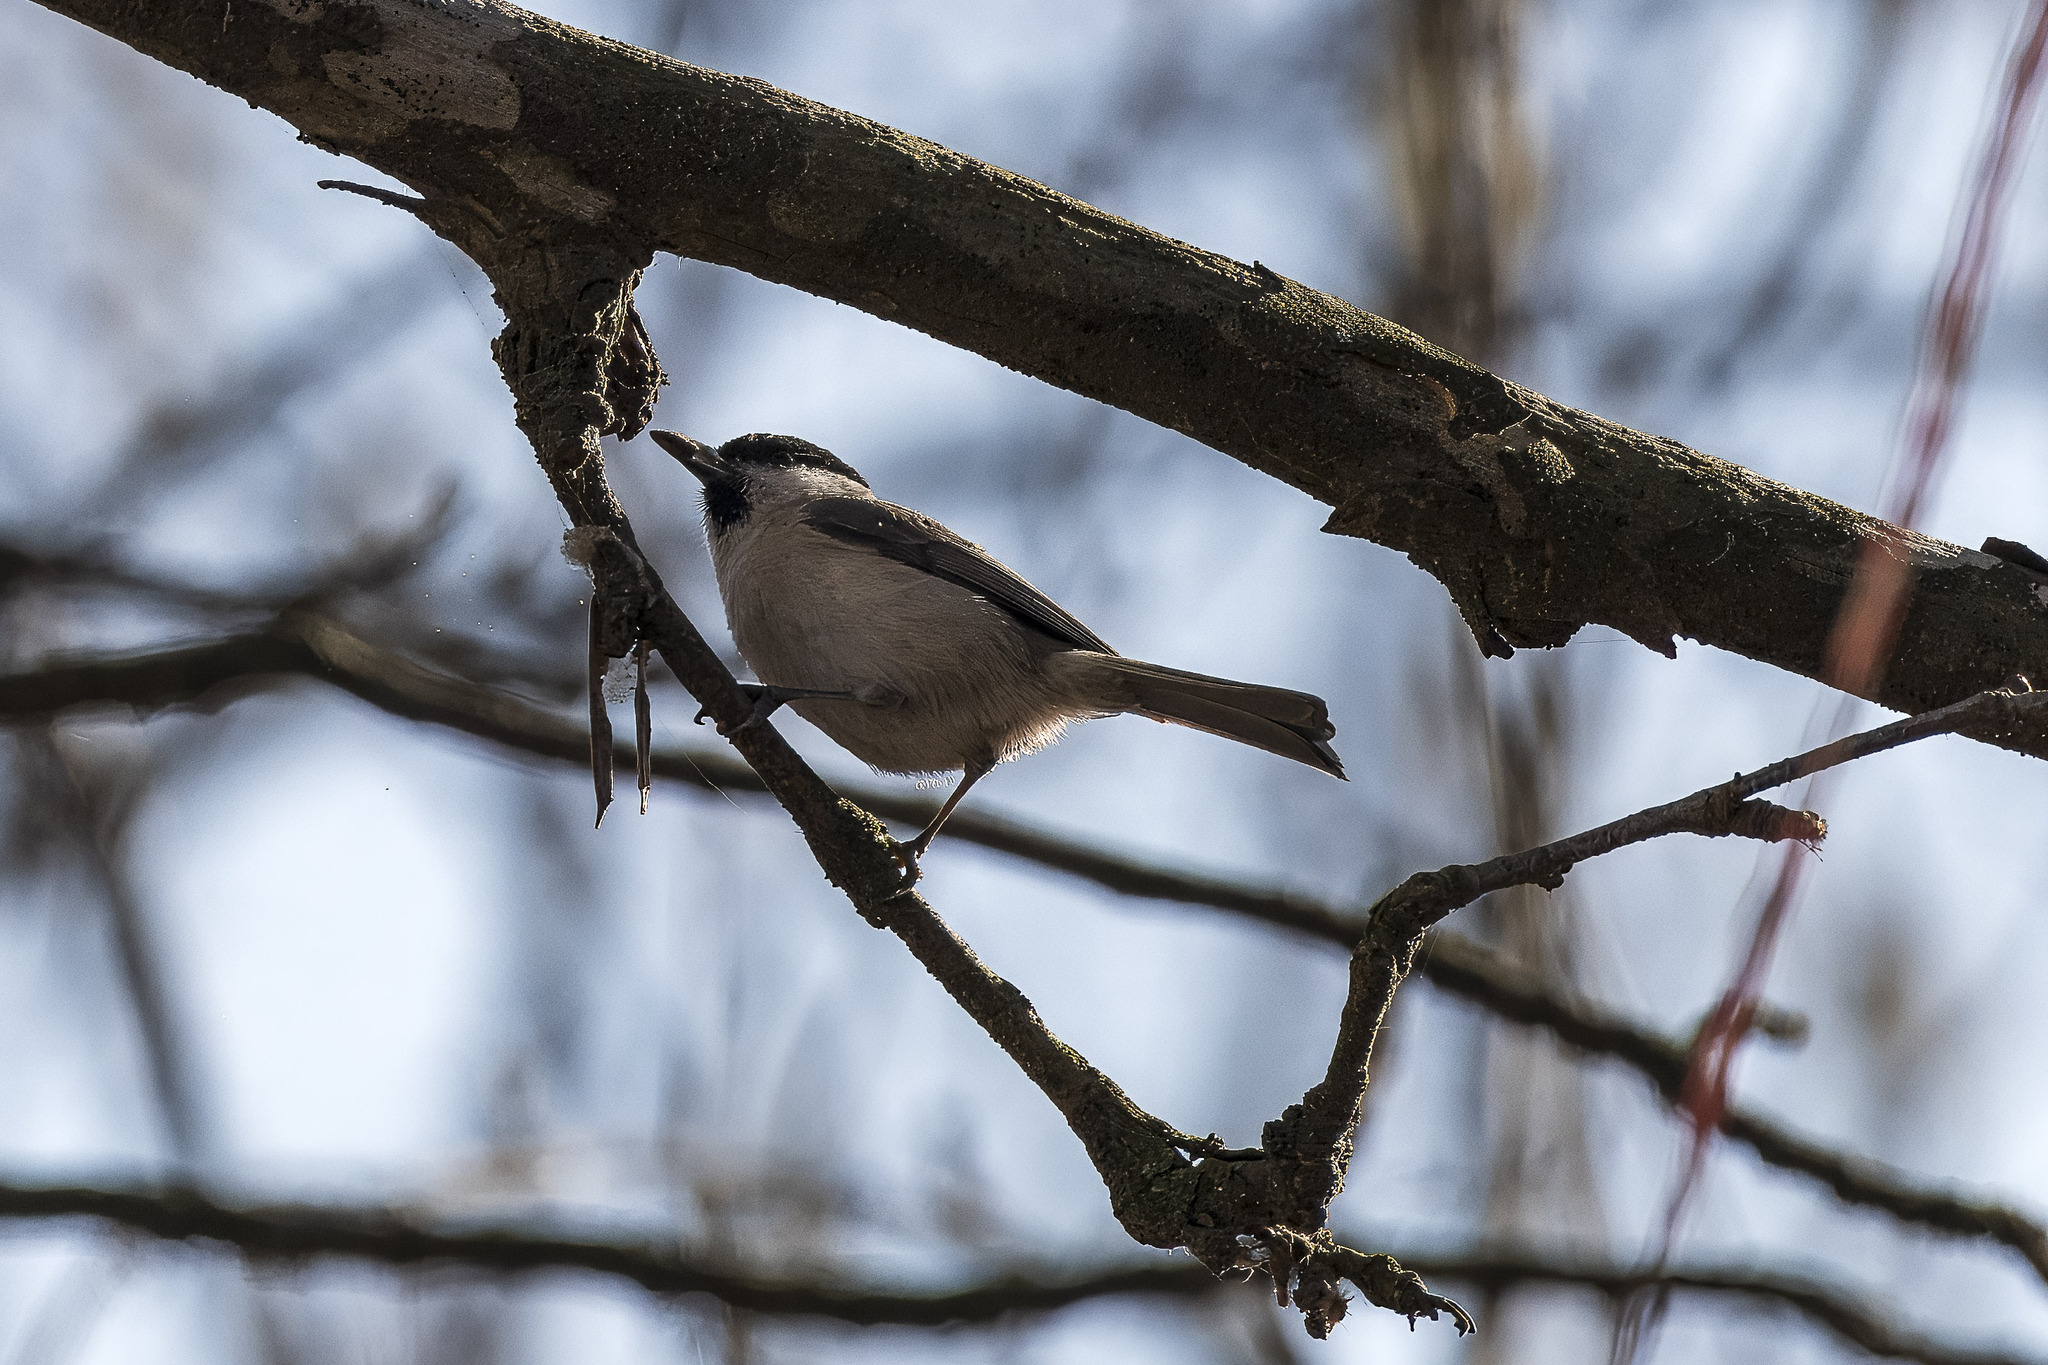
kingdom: Animalia
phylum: Chordata
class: Aves
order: Passeriformes
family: Paridae
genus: Poecile
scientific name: Poecile palustris
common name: Marsh tit
